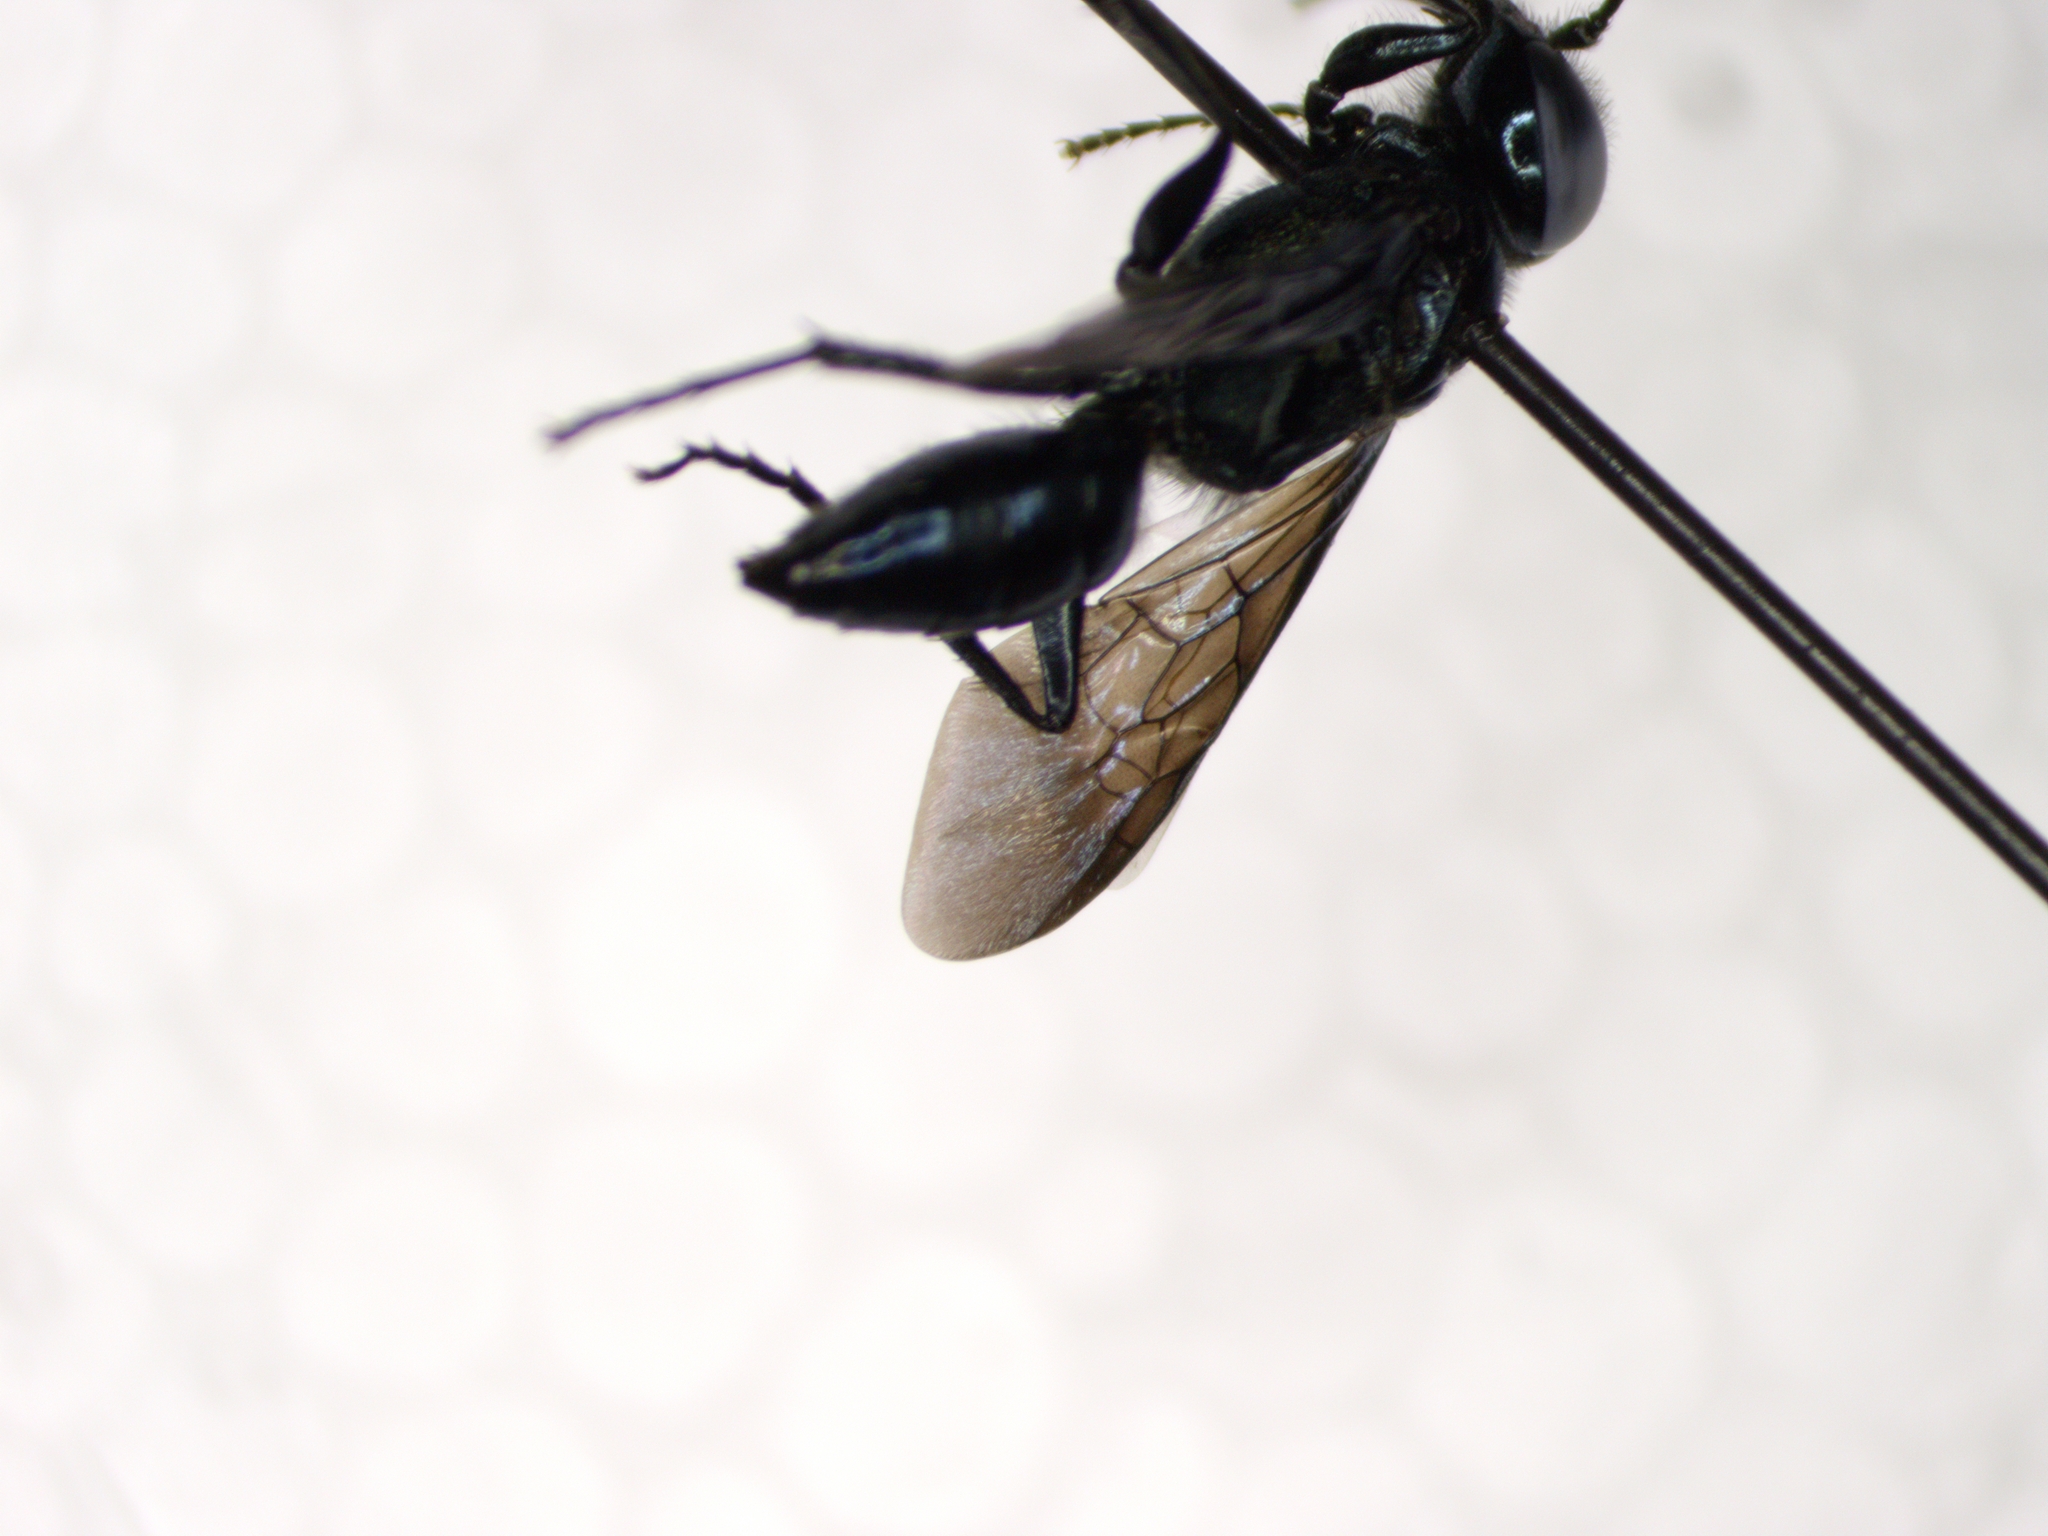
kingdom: Animalia
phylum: Arthropoda
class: Insecta
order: Hymenoptera
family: Crabronidae
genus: Dryudella
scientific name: Dryudella caerulea
